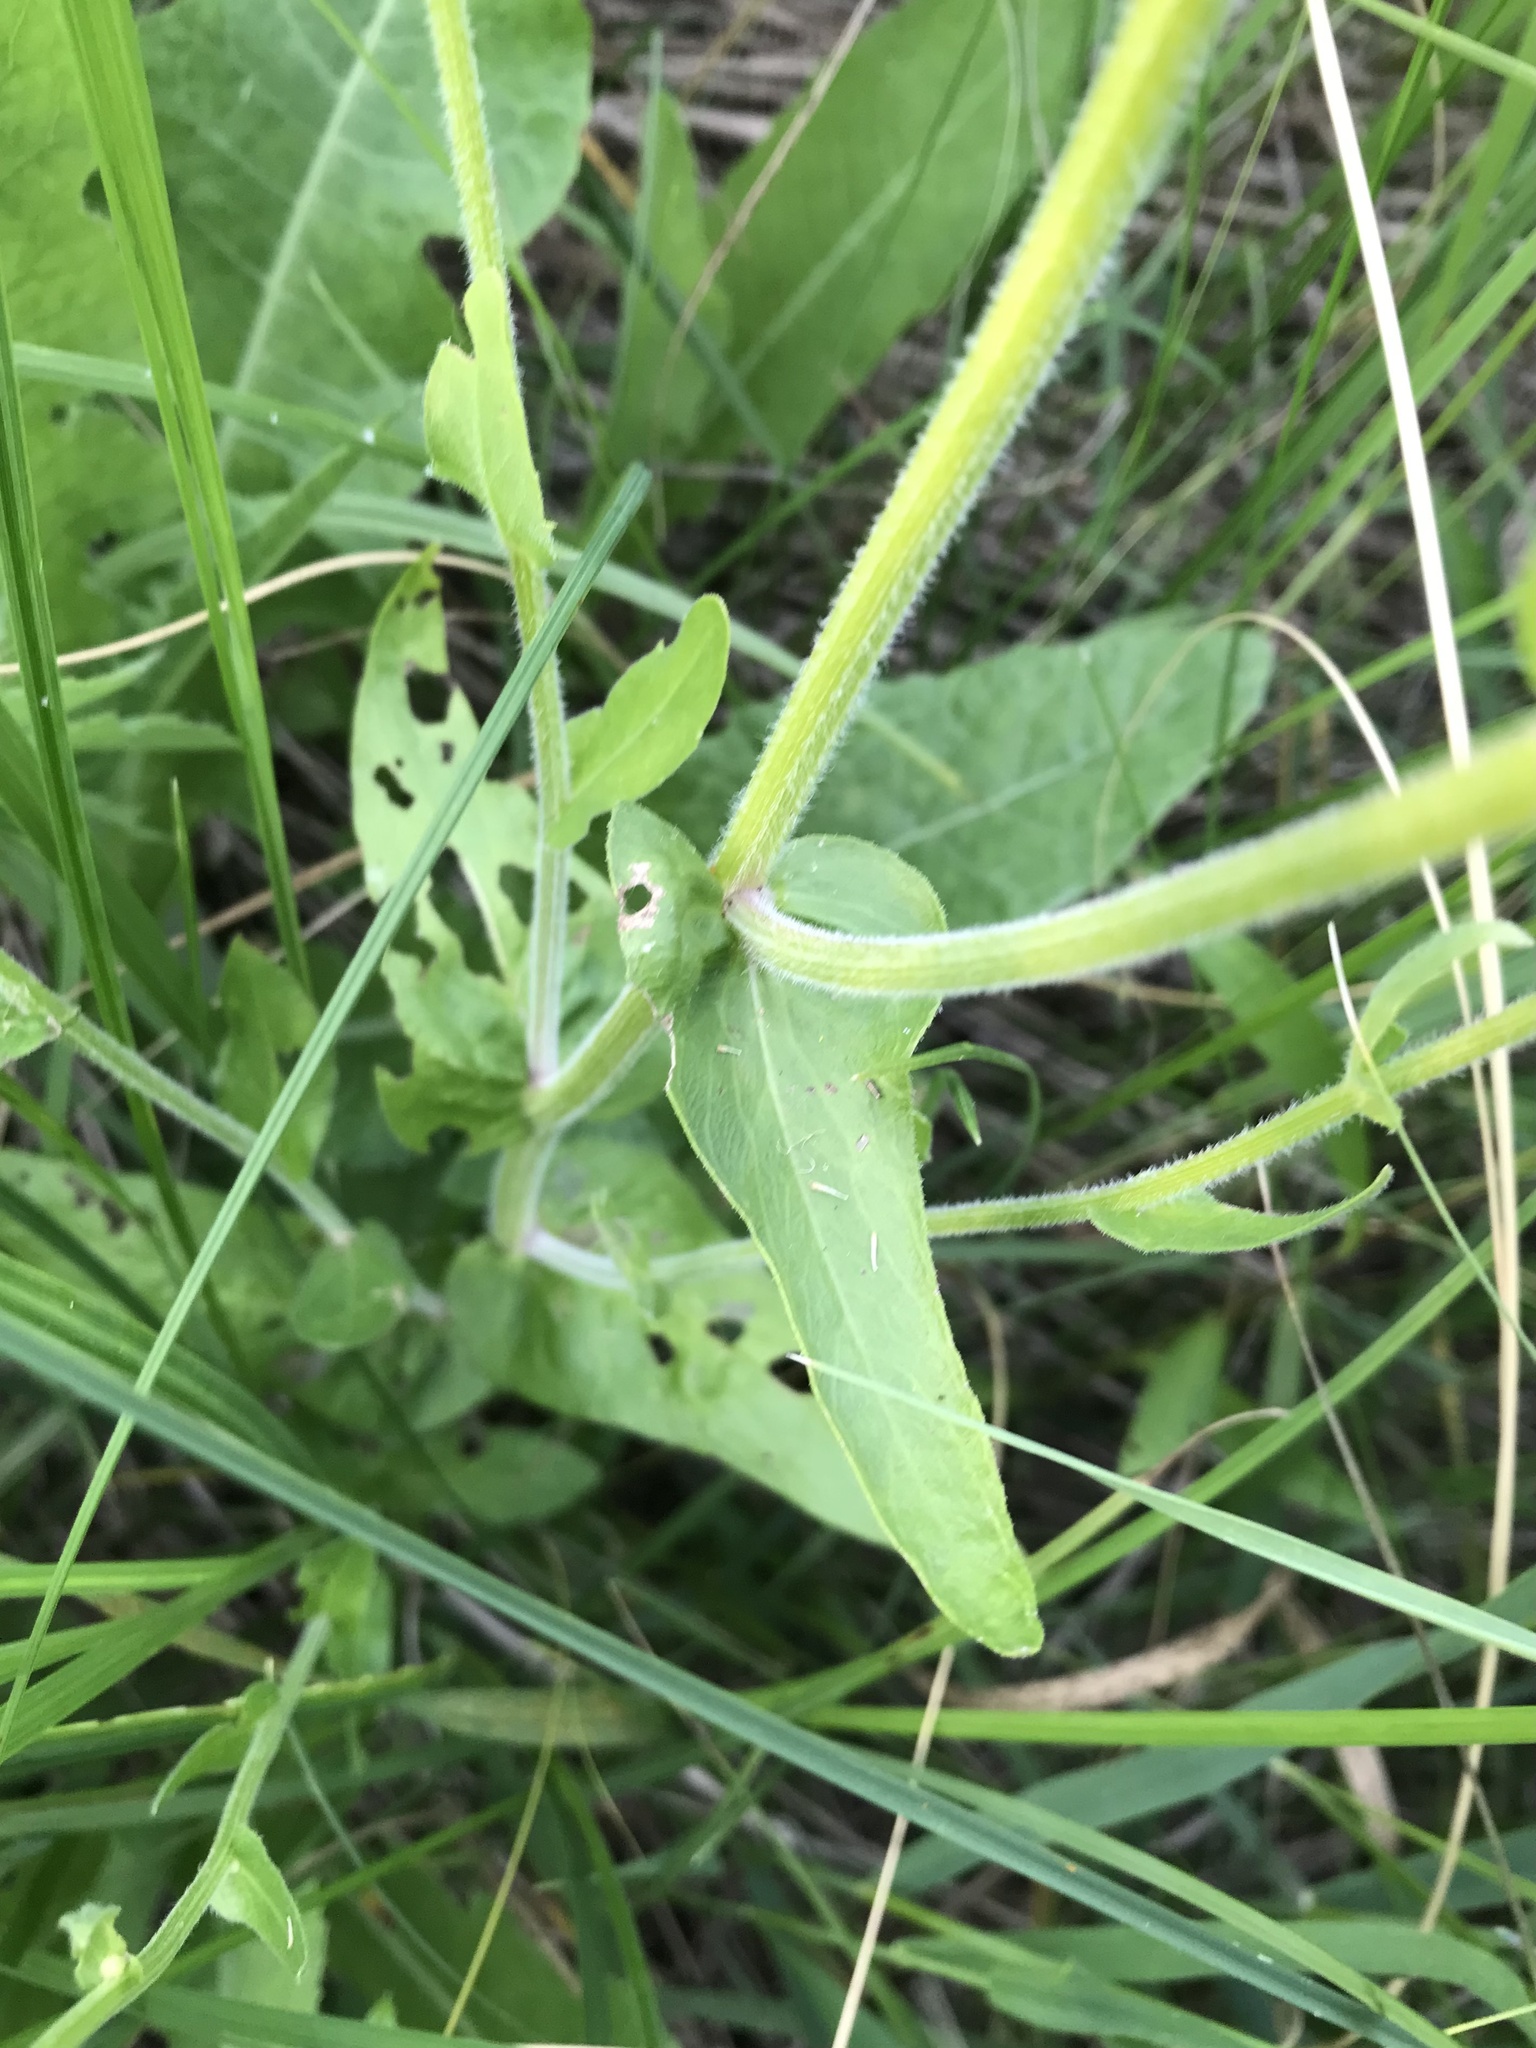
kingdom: Plantae
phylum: Tracheophyta
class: Magnoliopsida
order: Asterales
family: Asteraceae
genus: Erigeron
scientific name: Erigeron philadelphicus
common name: Robin's-plantain
